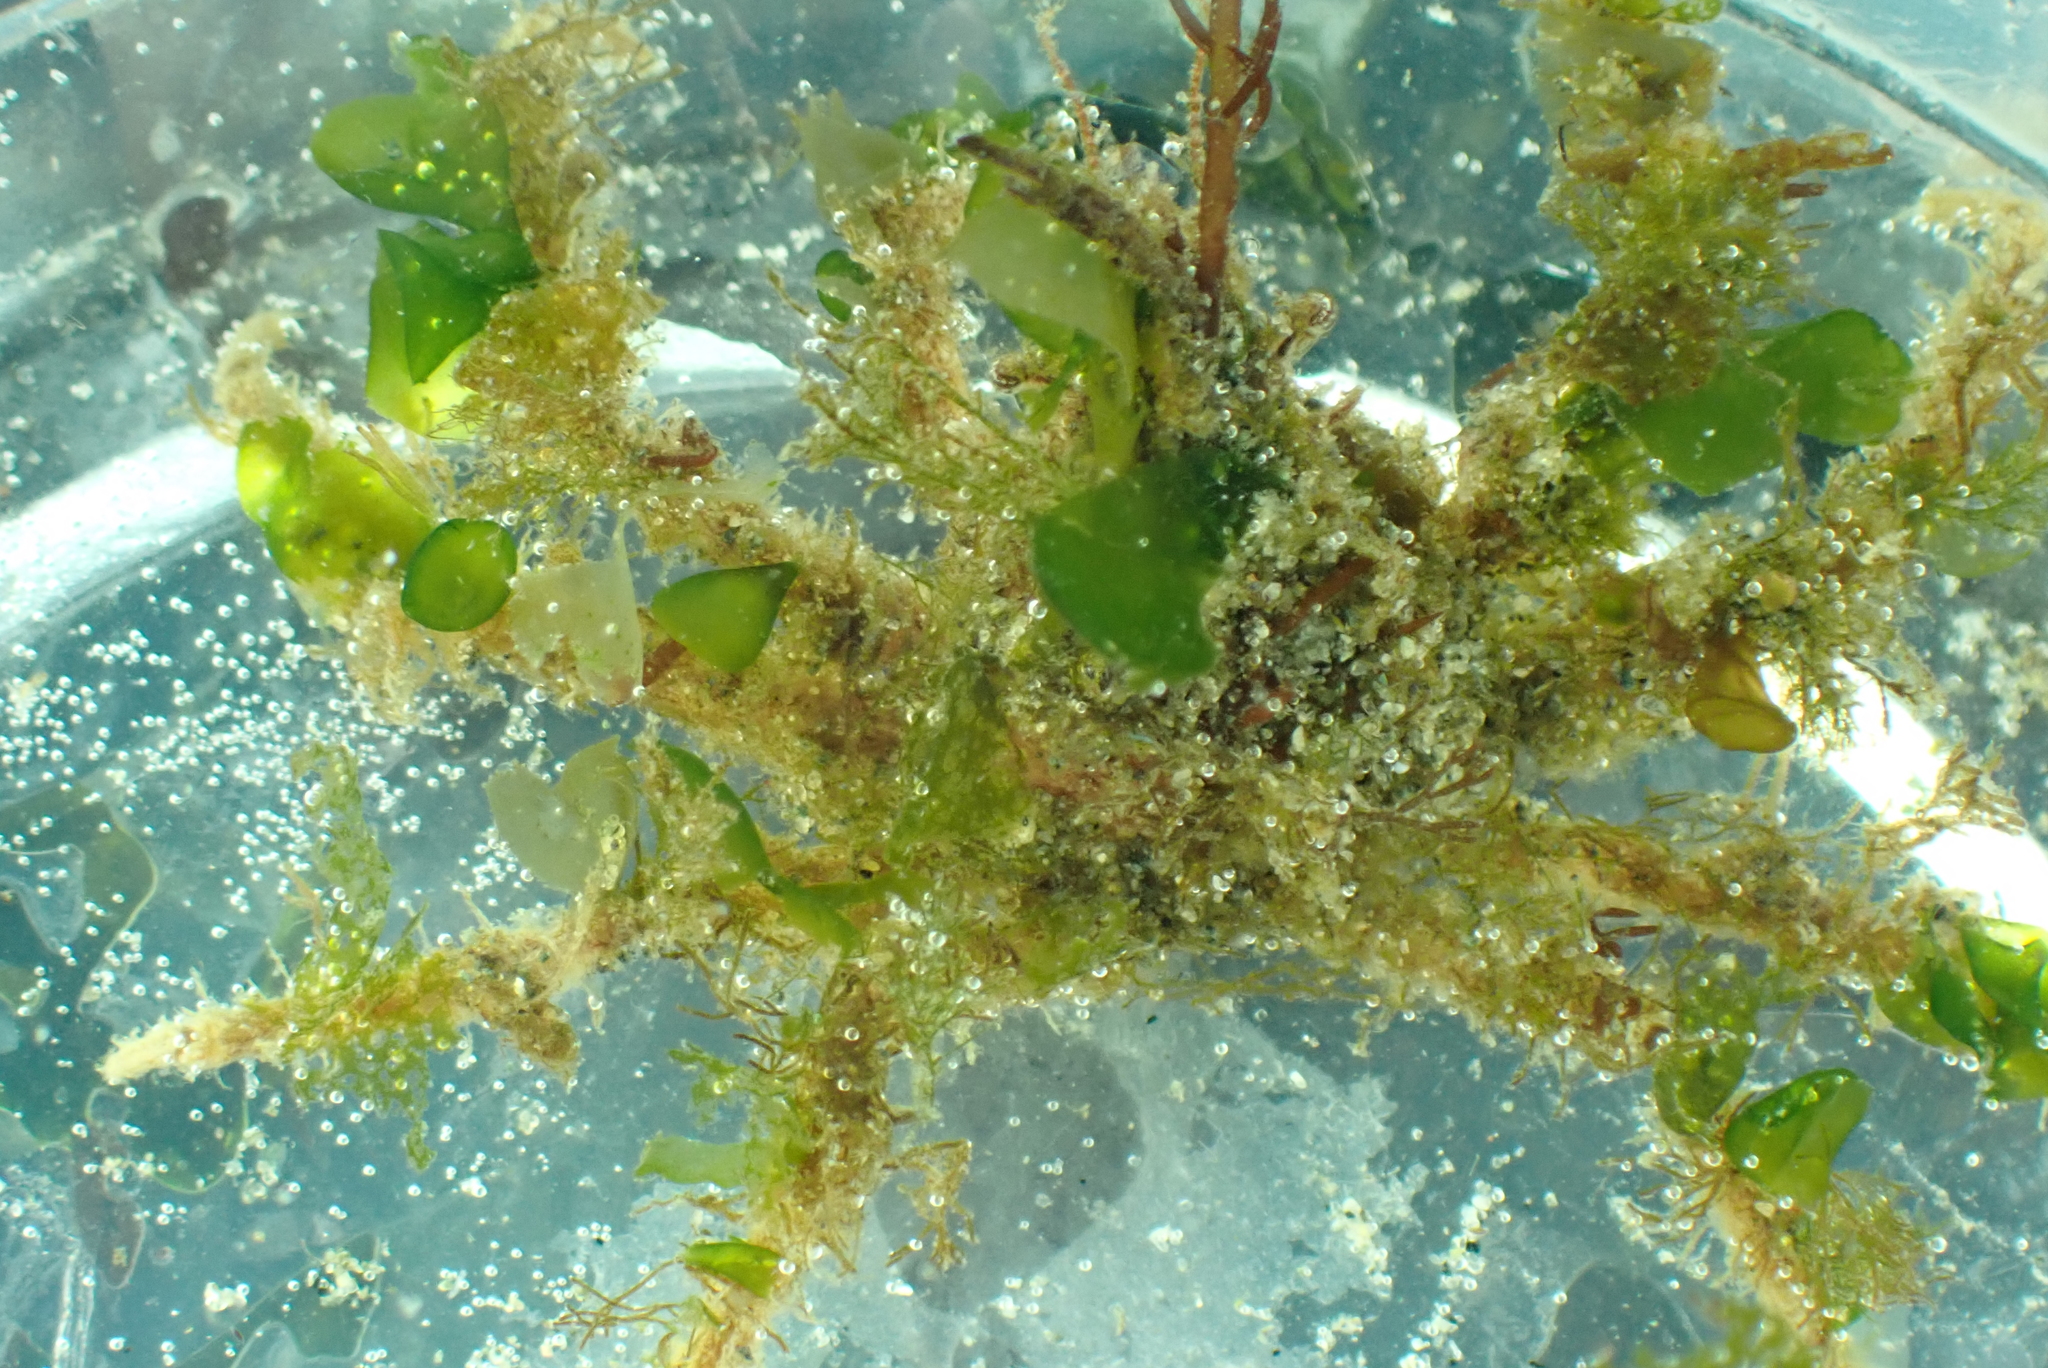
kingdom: Animalia
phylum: Arthropoda
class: Malacostraca
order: Decapoda
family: Oregoniidae
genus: Oregonia
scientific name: Oregonia gracilis
